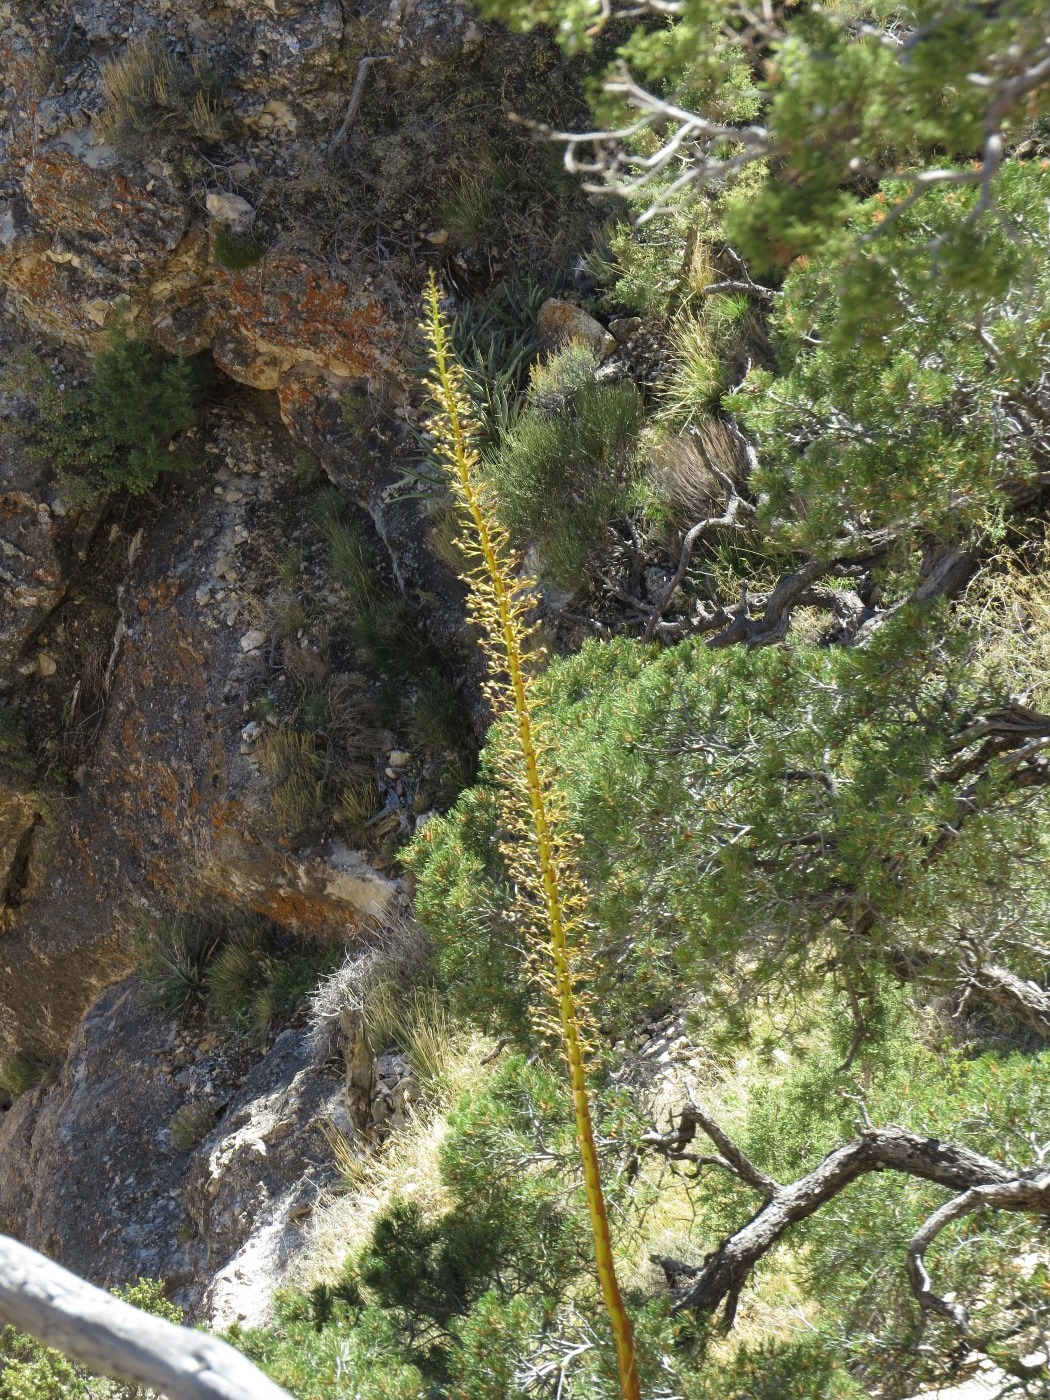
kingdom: Plantae
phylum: Tracheophyta
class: Liliopsida
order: Asparagales
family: Asparagaceae
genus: Agave
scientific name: Agave utahensis
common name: Utah agave
